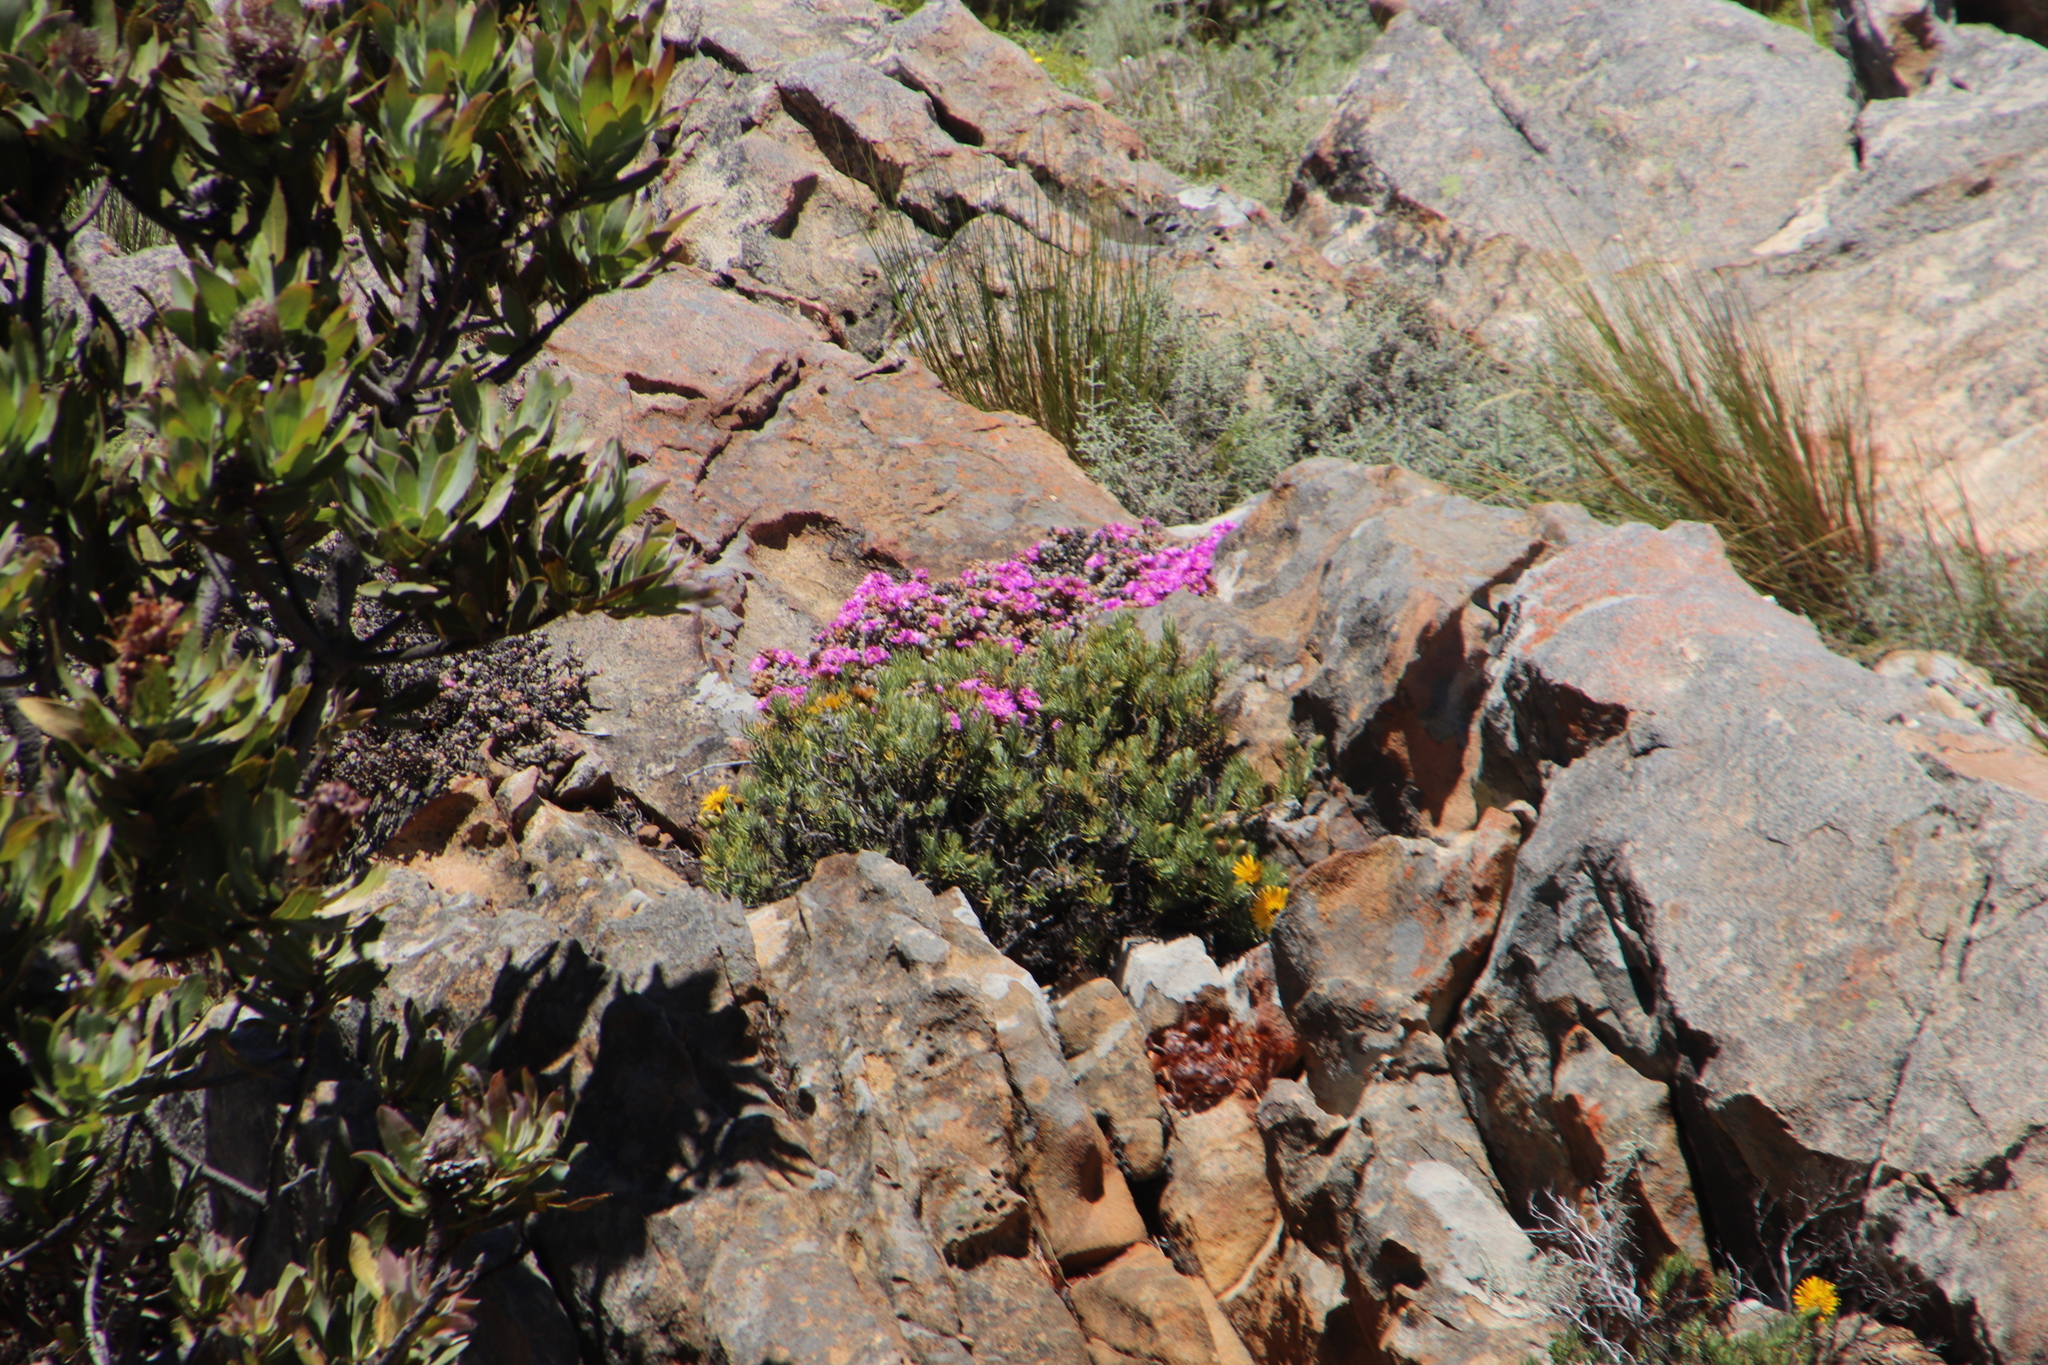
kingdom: Plantae
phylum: Tracheophyta
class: Magnoliopsida
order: Asterales
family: Asteraceae
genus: Heterolepis
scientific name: Heterolepis aliena
